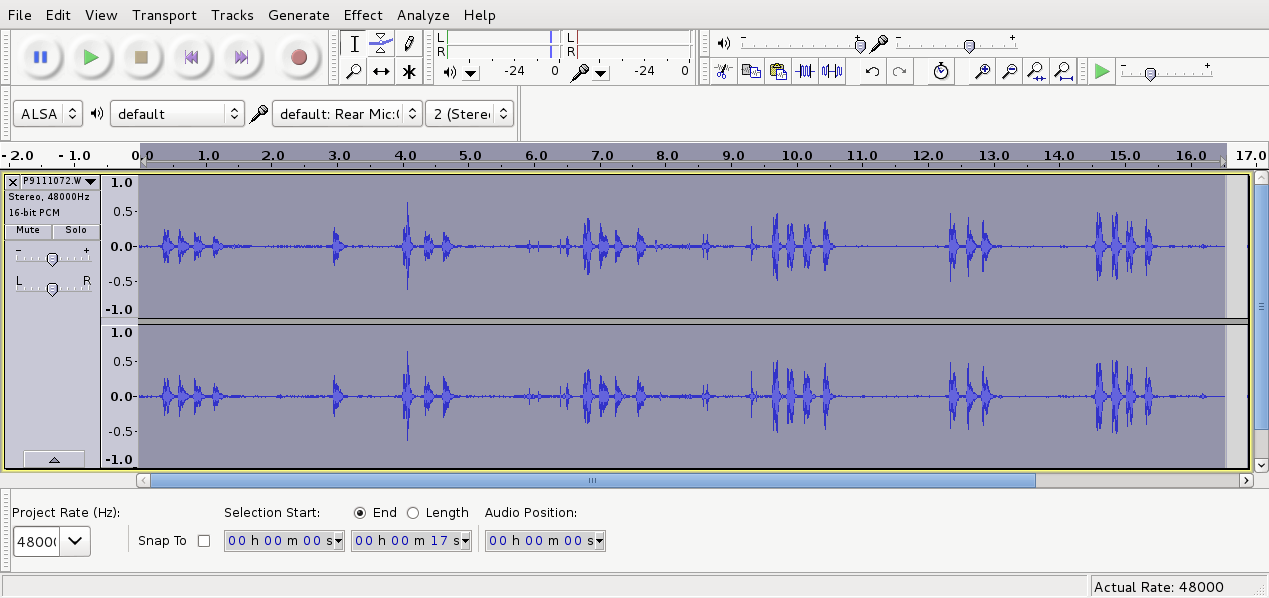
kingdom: Animalia
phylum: Chordata
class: Aves
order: Passeriformes
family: Turdidae
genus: Turdus
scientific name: Turdus merula
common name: Common blackbird
